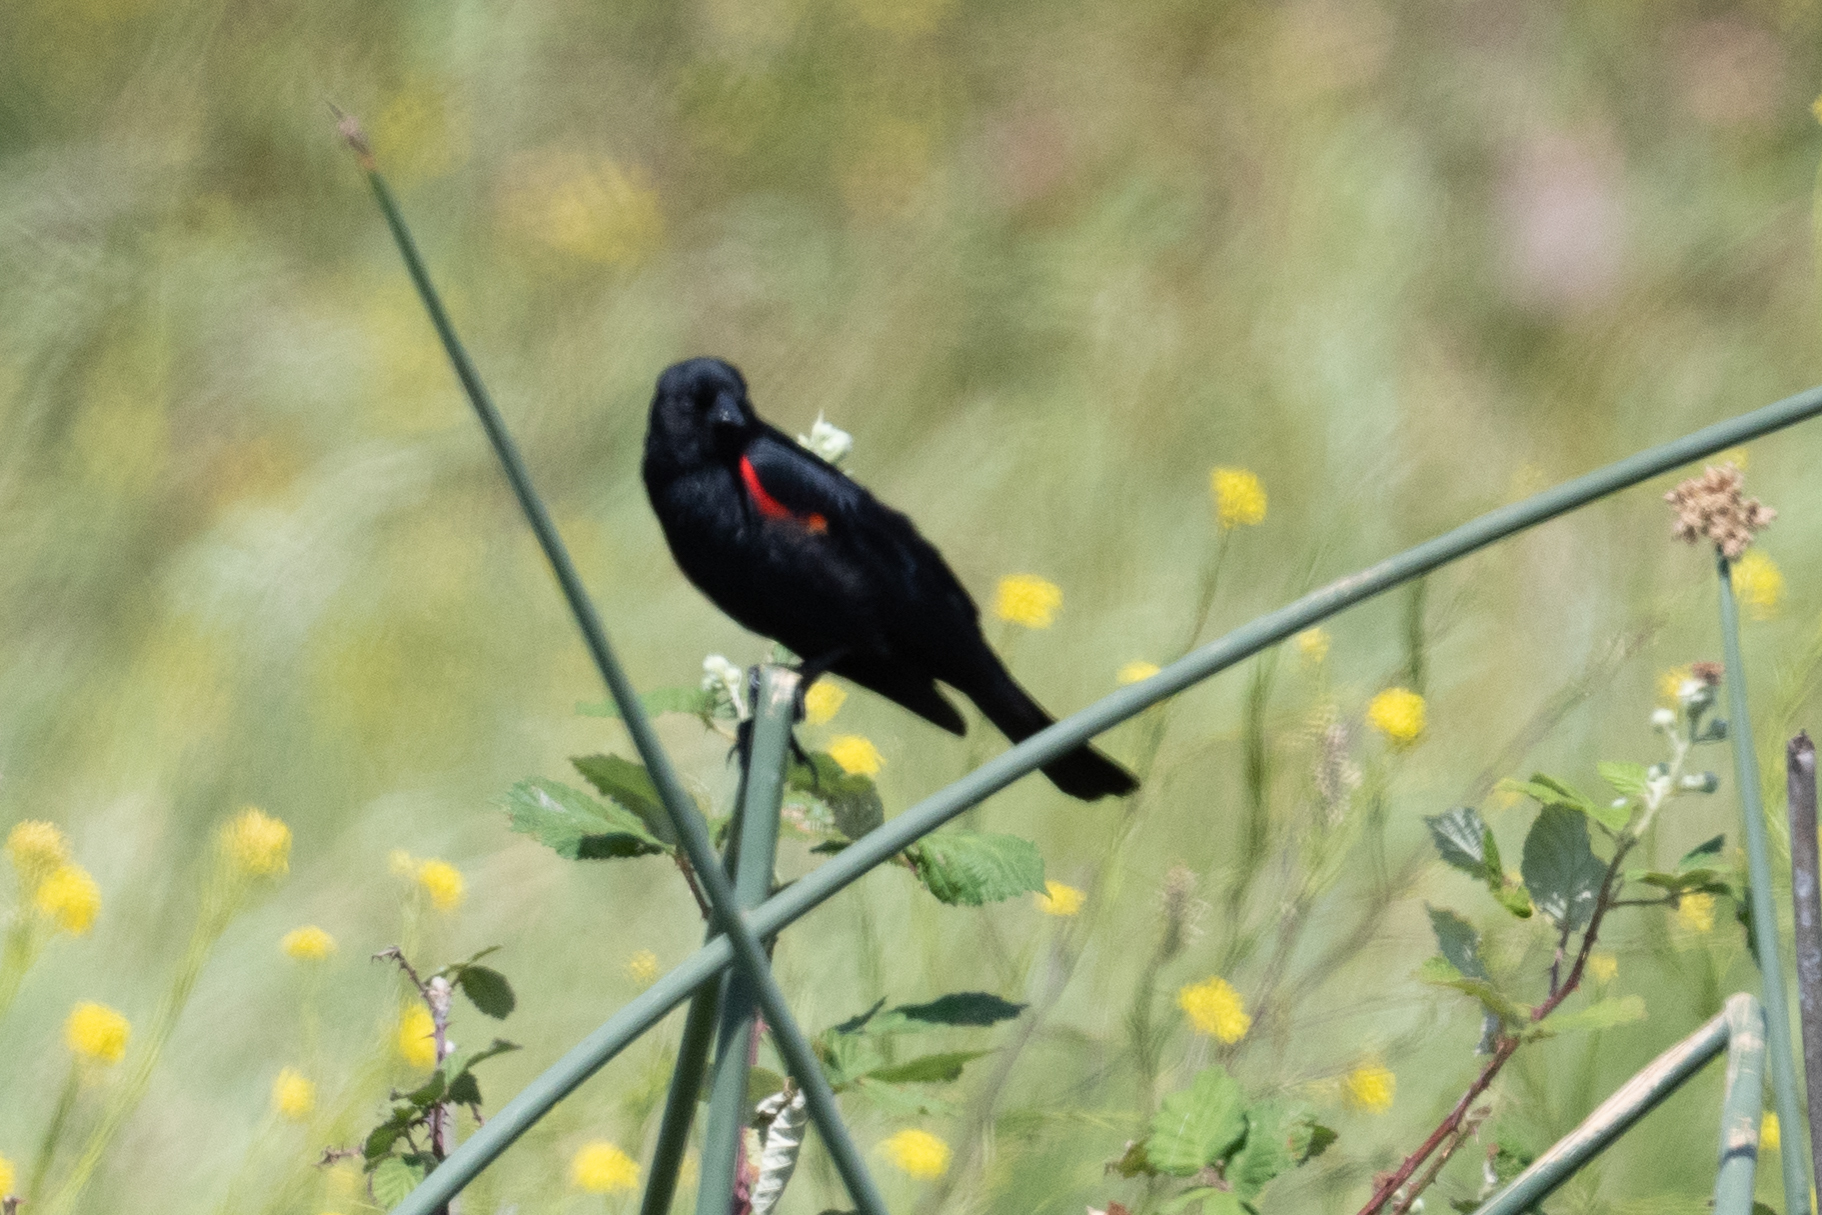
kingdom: Animalia
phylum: Chordata
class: Aves
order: Passeriformes
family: Icteridae
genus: Agelaius
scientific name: Agelaius phoeniceus
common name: Red-winged blackbird
